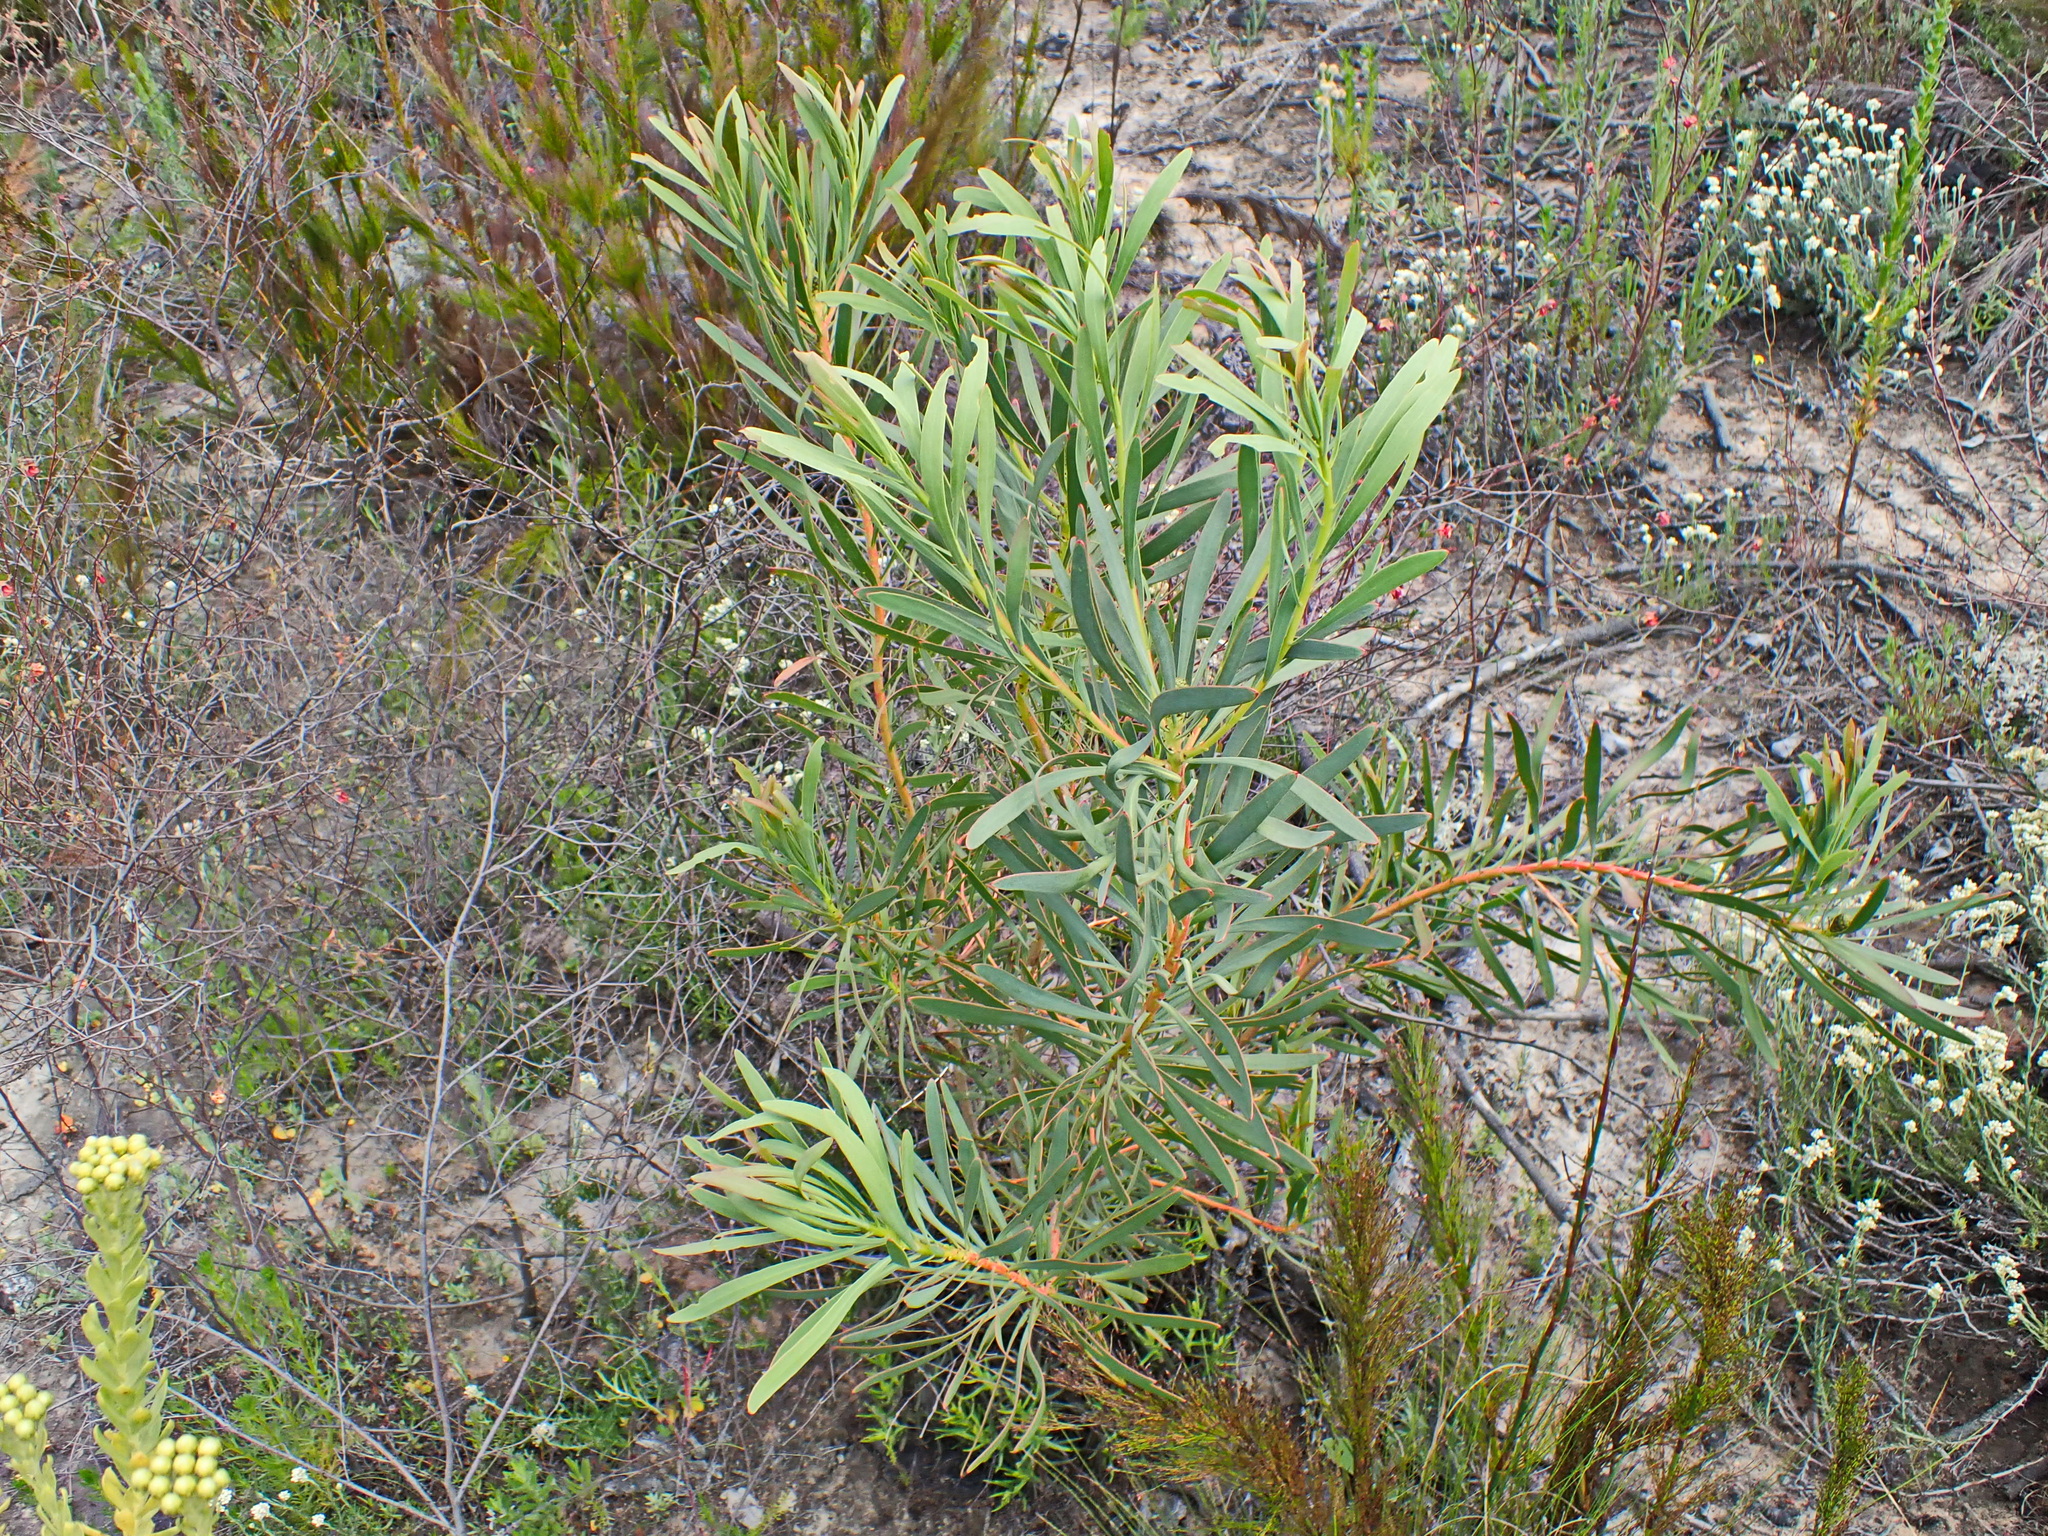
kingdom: Plantae
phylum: Tracheophyta
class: Magnoliopsida
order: Proteales
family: Proteaceae
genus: Protea
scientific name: Protea repens
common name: Sugarbush
